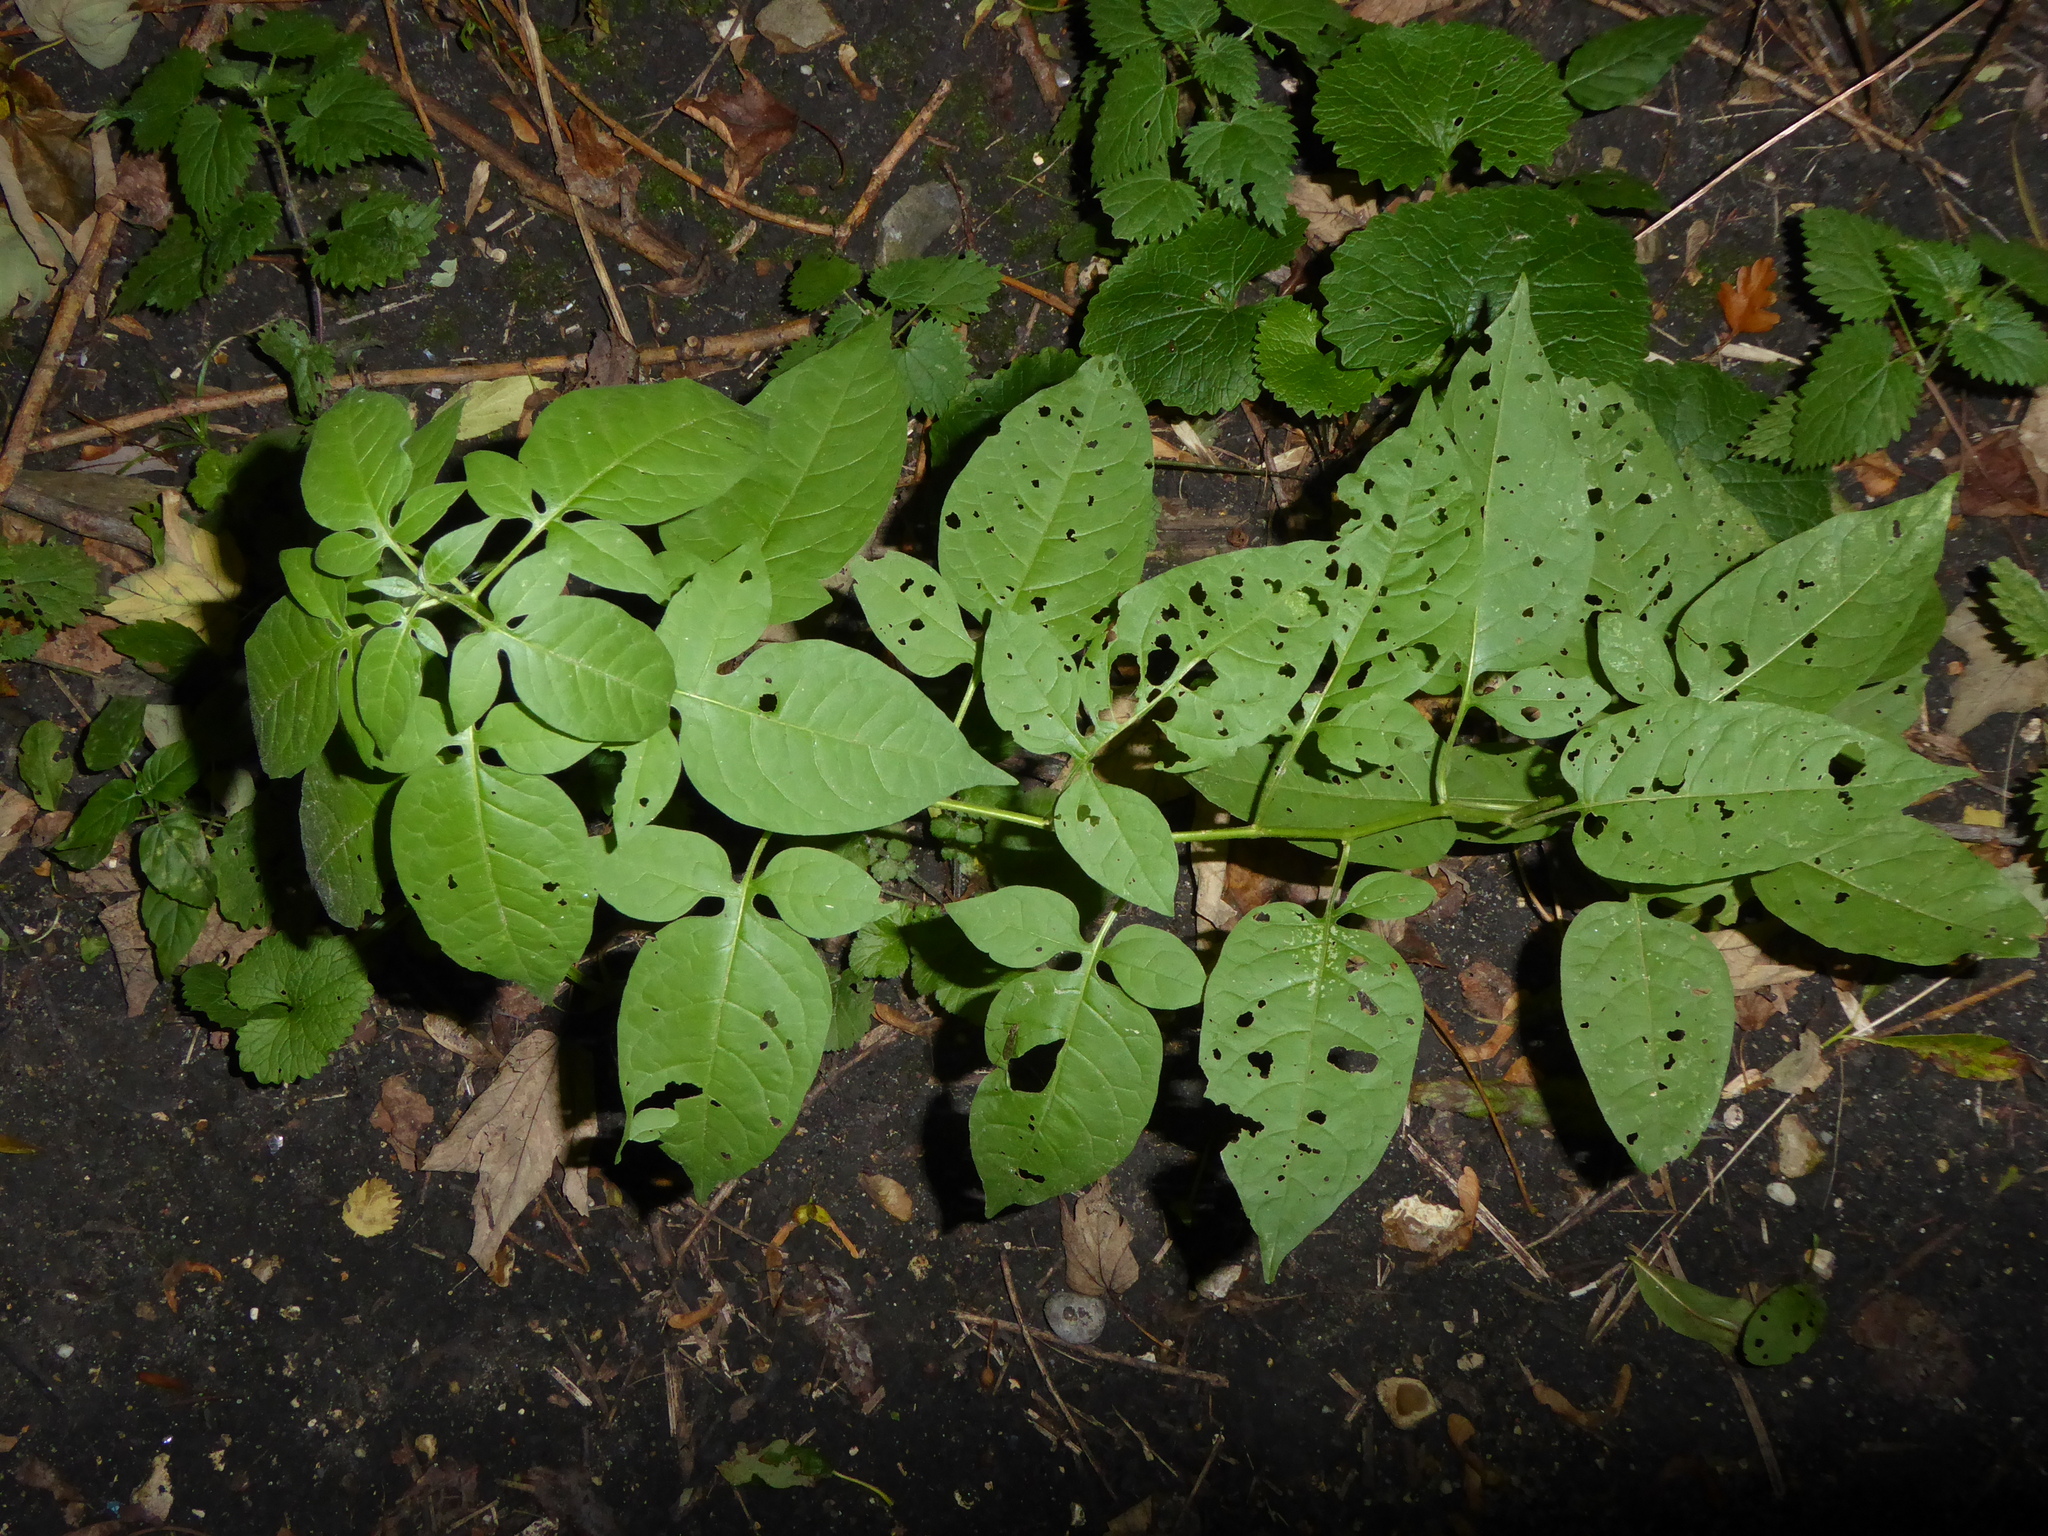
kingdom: Plantae
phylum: Tracheophyta
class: Magnoliopsida
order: Solanales
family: Solanaceae
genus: Solanum
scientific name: Solanum dulcamara
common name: Climbing nightshade
